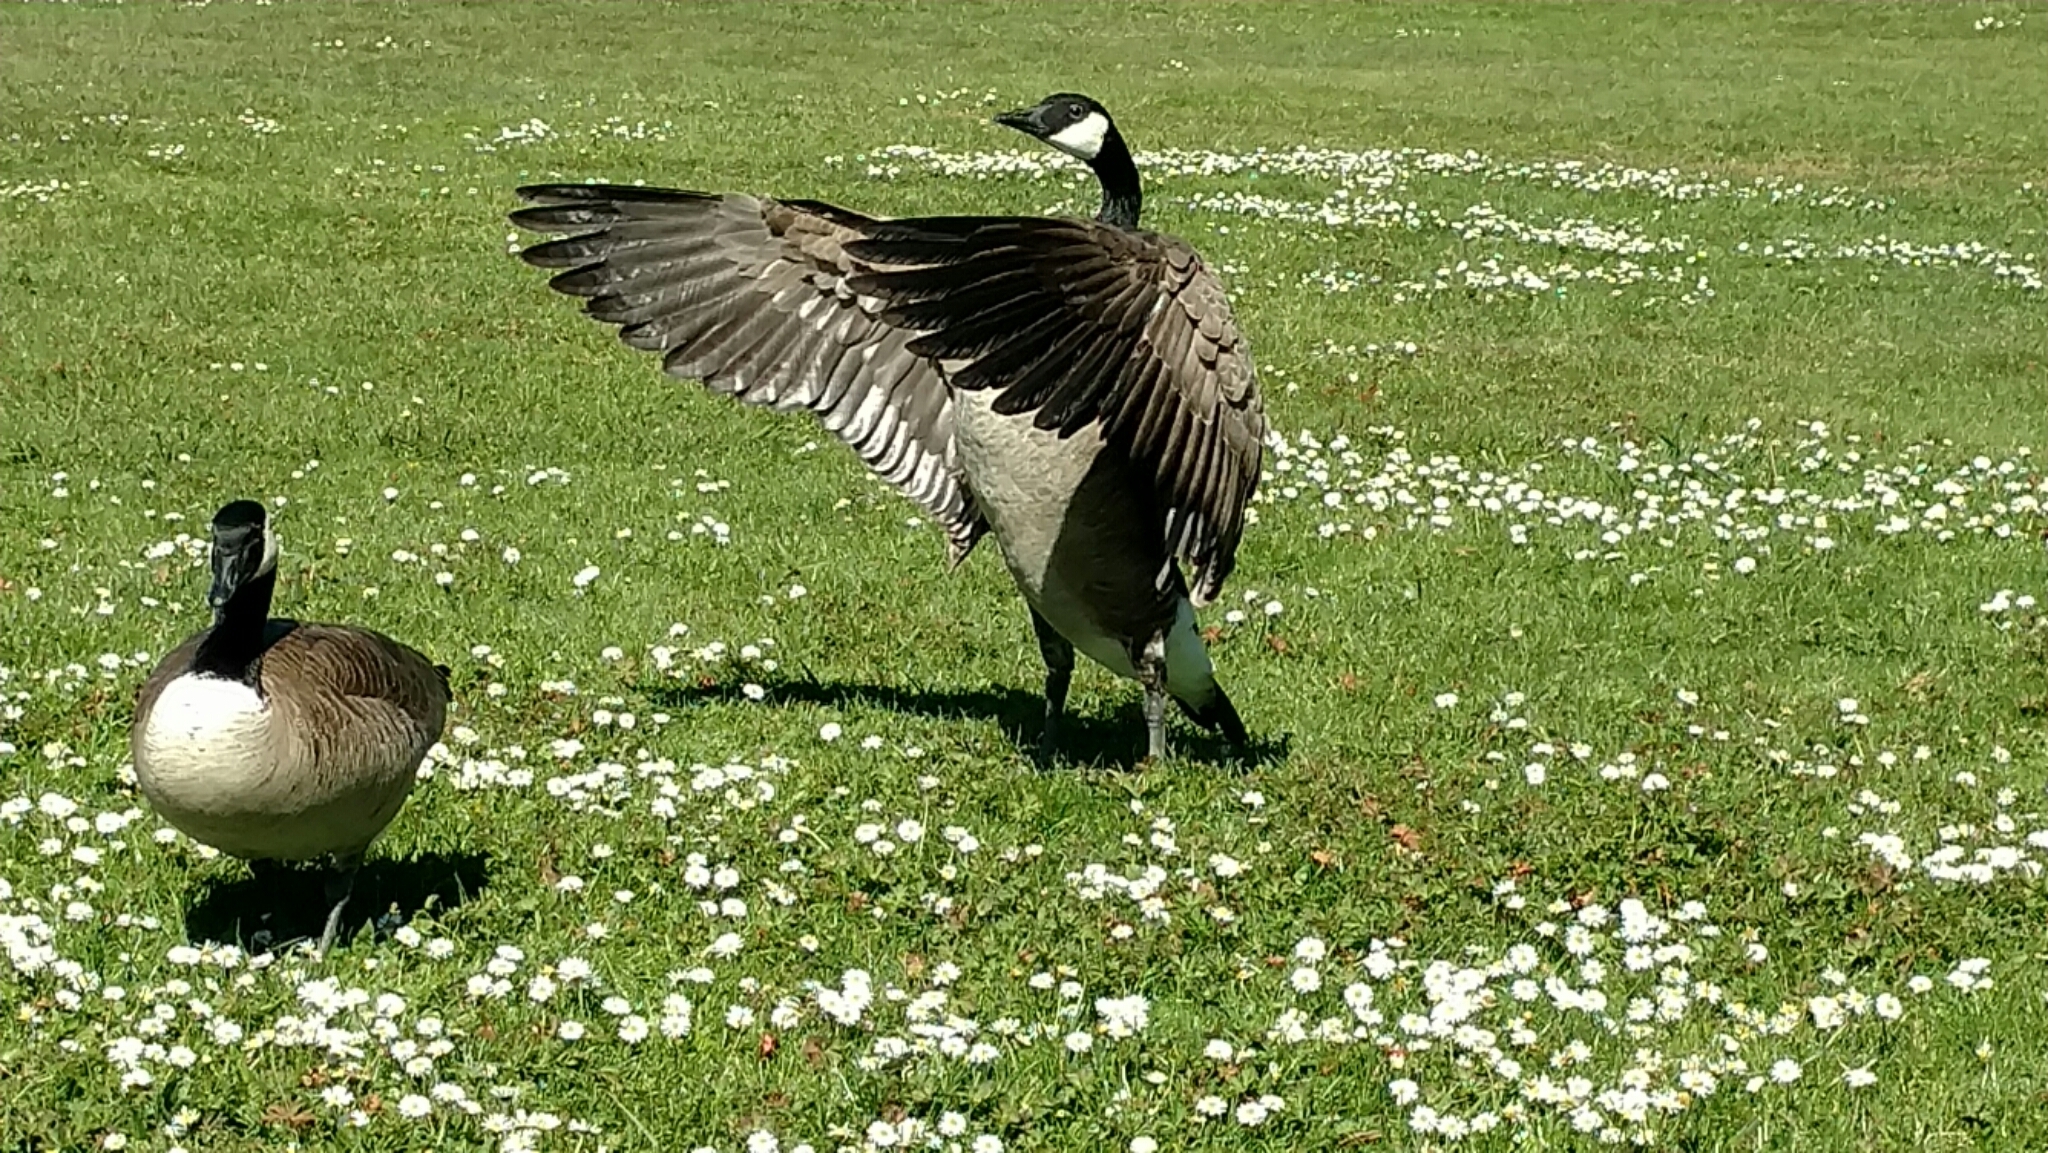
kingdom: Animalia
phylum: Chordata
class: Aves
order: Anseriformes
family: Anatidae
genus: Branta
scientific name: Branta canadensis
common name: Canada goose
